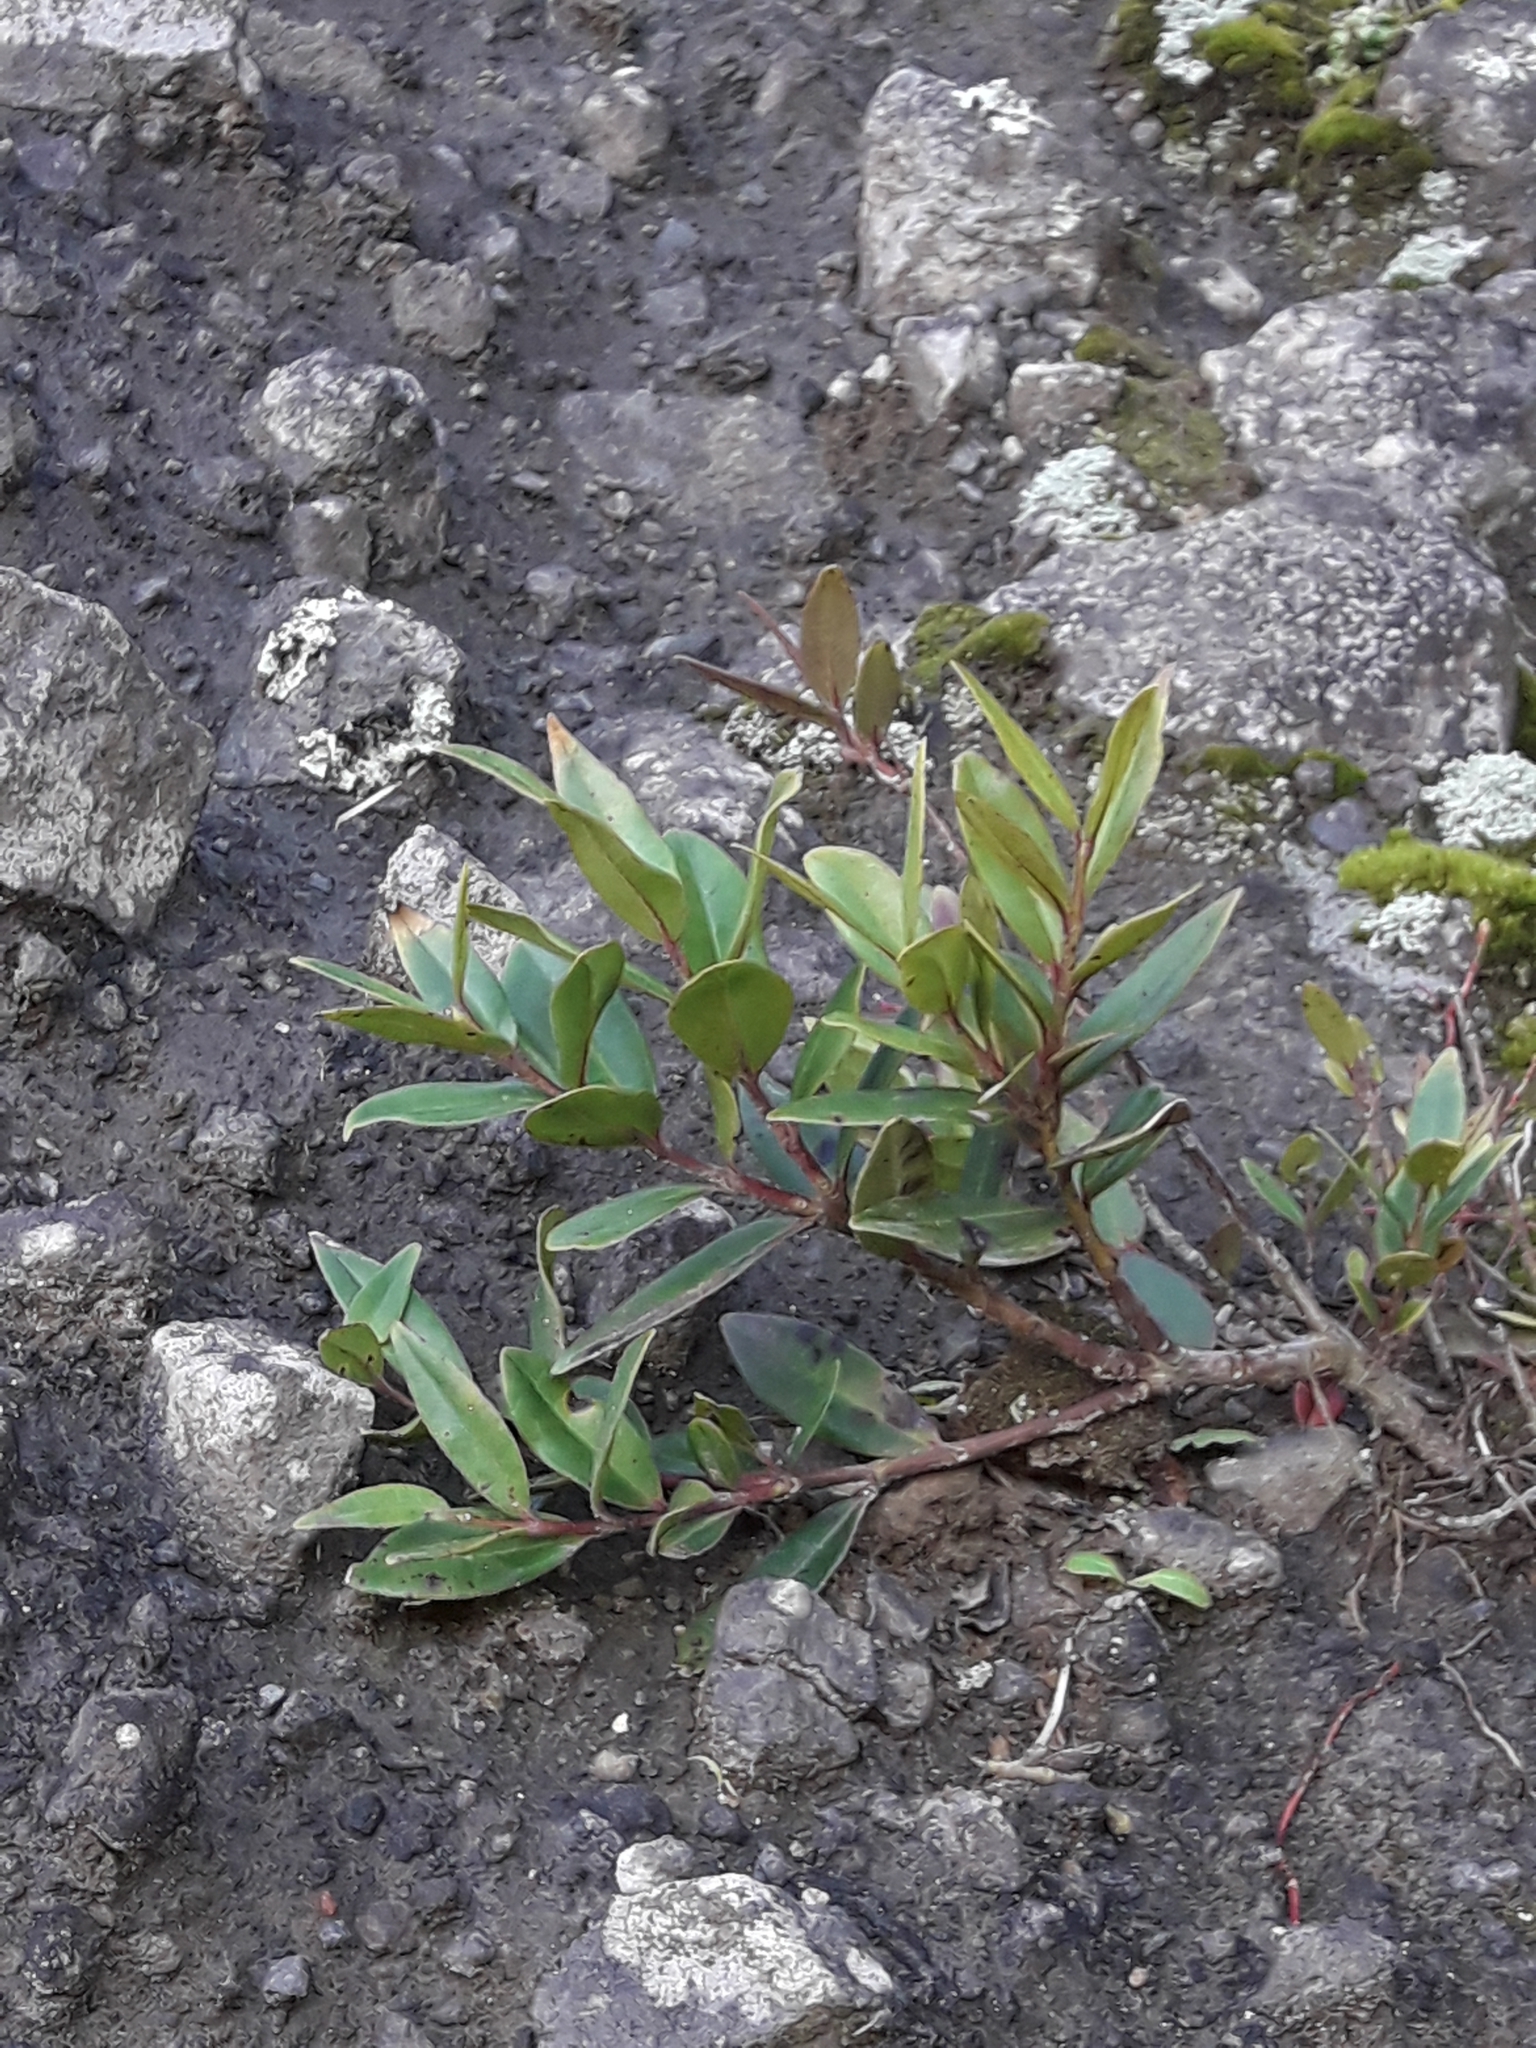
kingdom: Plantae
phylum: Tracheophyta
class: Magnoliopsida
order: Myrtales
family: Myrtaceae
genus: Metrosideros
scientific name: Metrosideros excelsa
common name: New zealand christmastree
